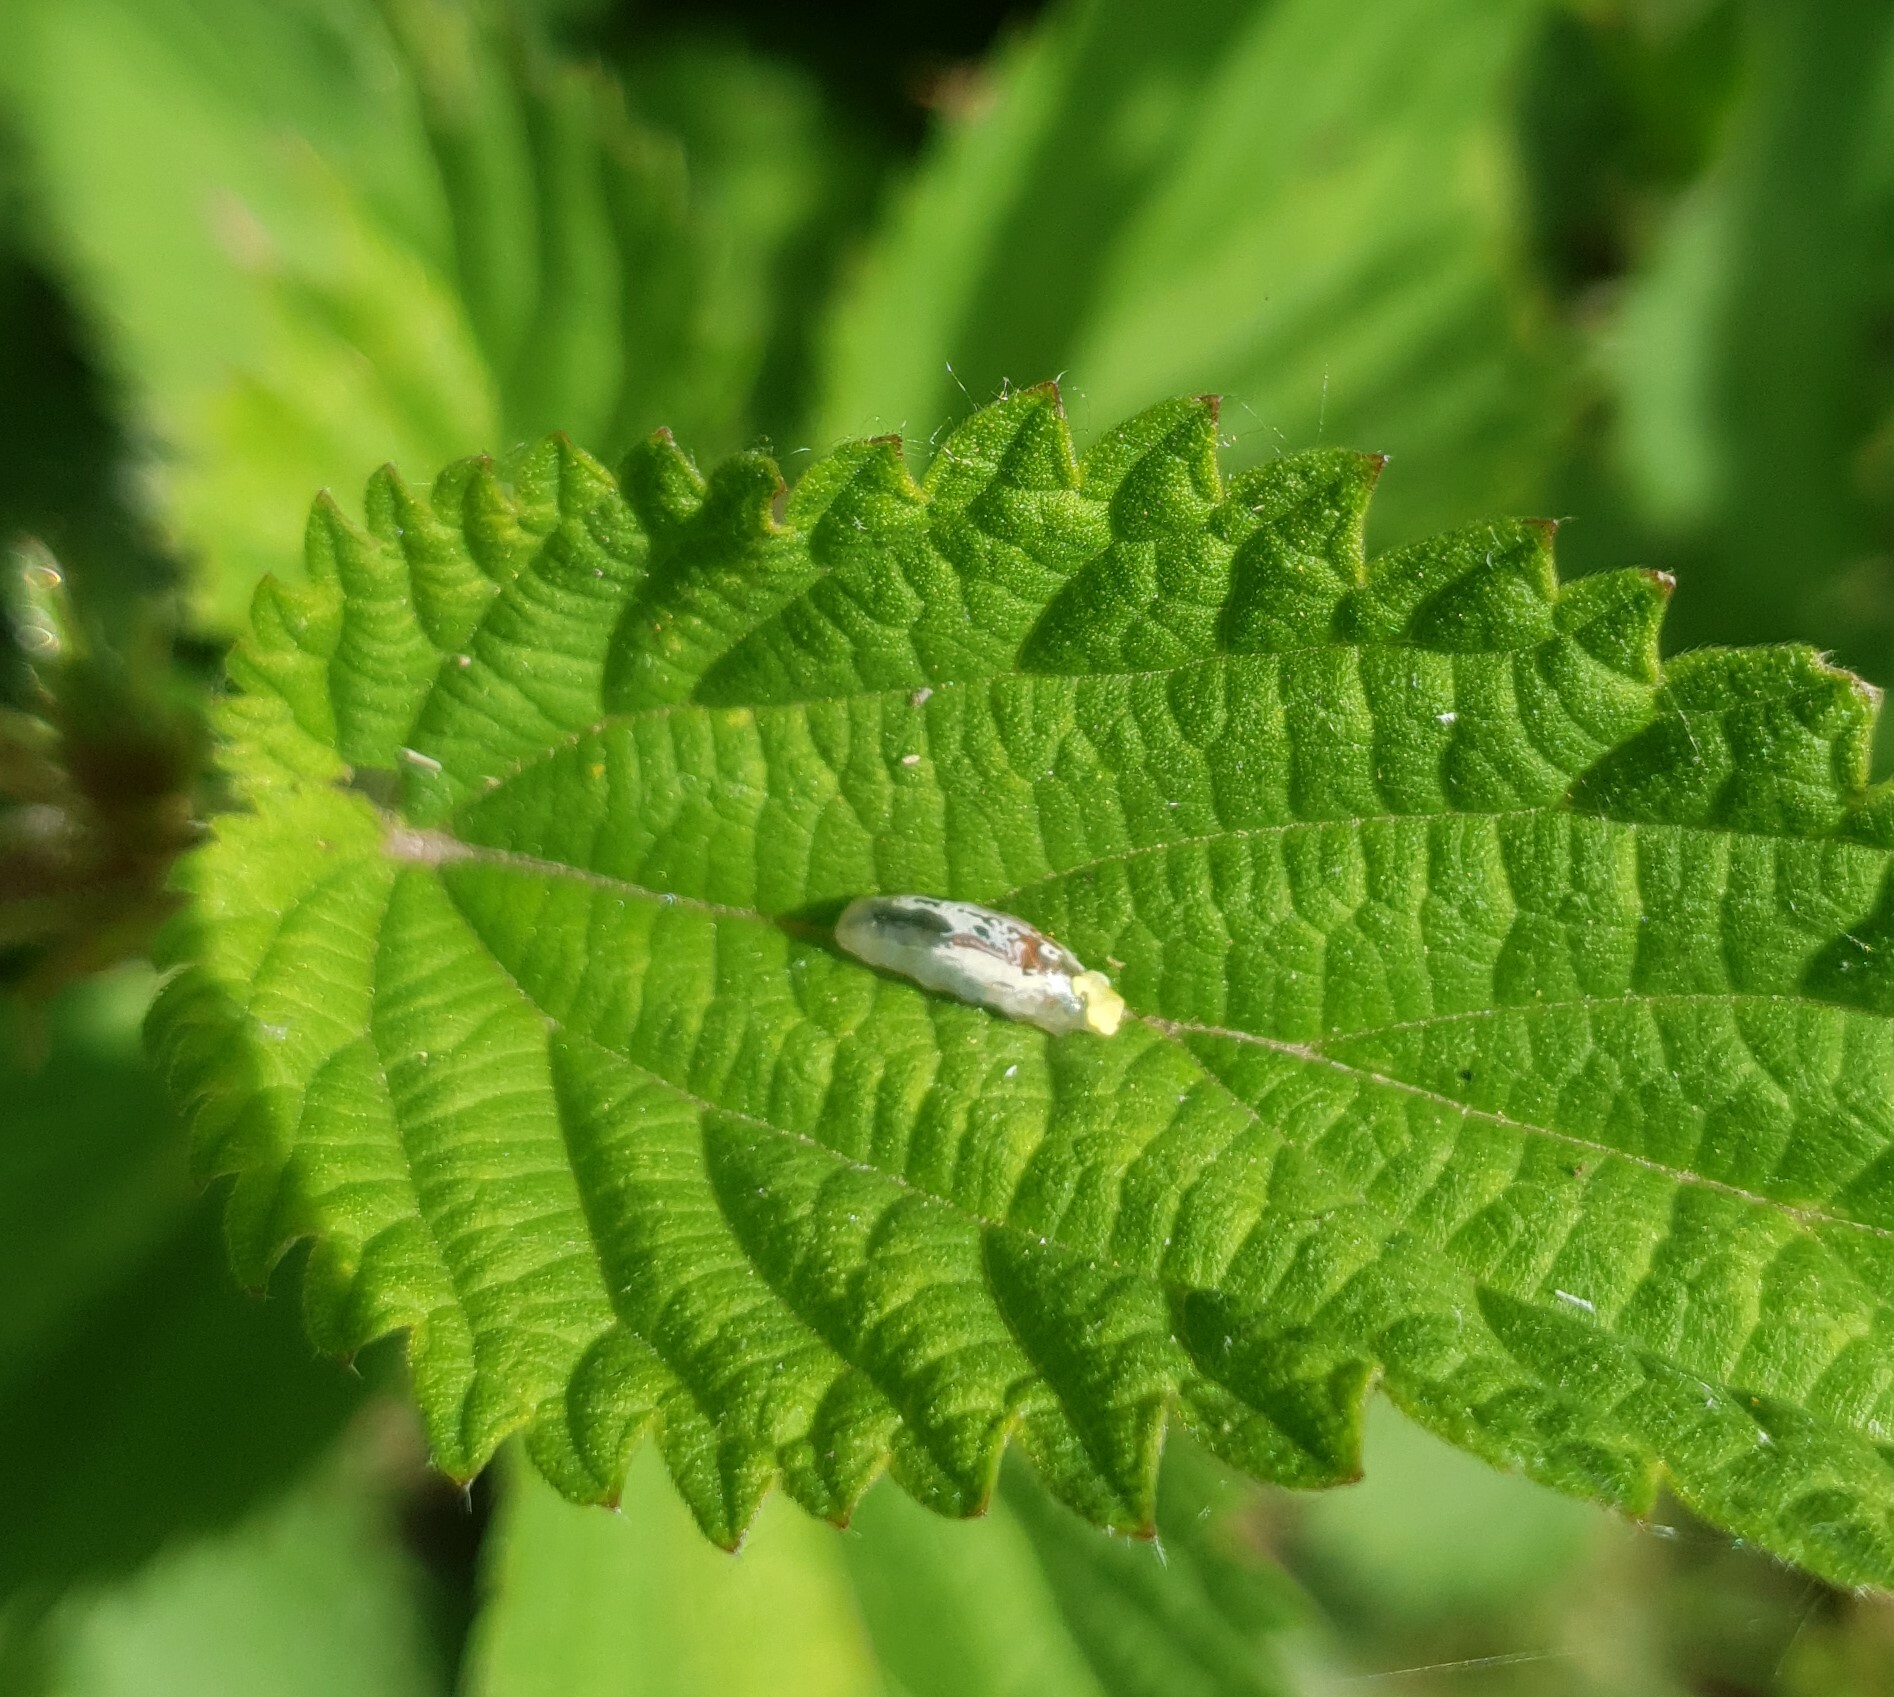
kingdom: Animalia
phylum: Arthropoda
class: Insecta
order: Diptera
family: Syrphidae
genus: Episyrphus
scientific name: Episyrphus balteatus
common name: Marmalade hoverfly
